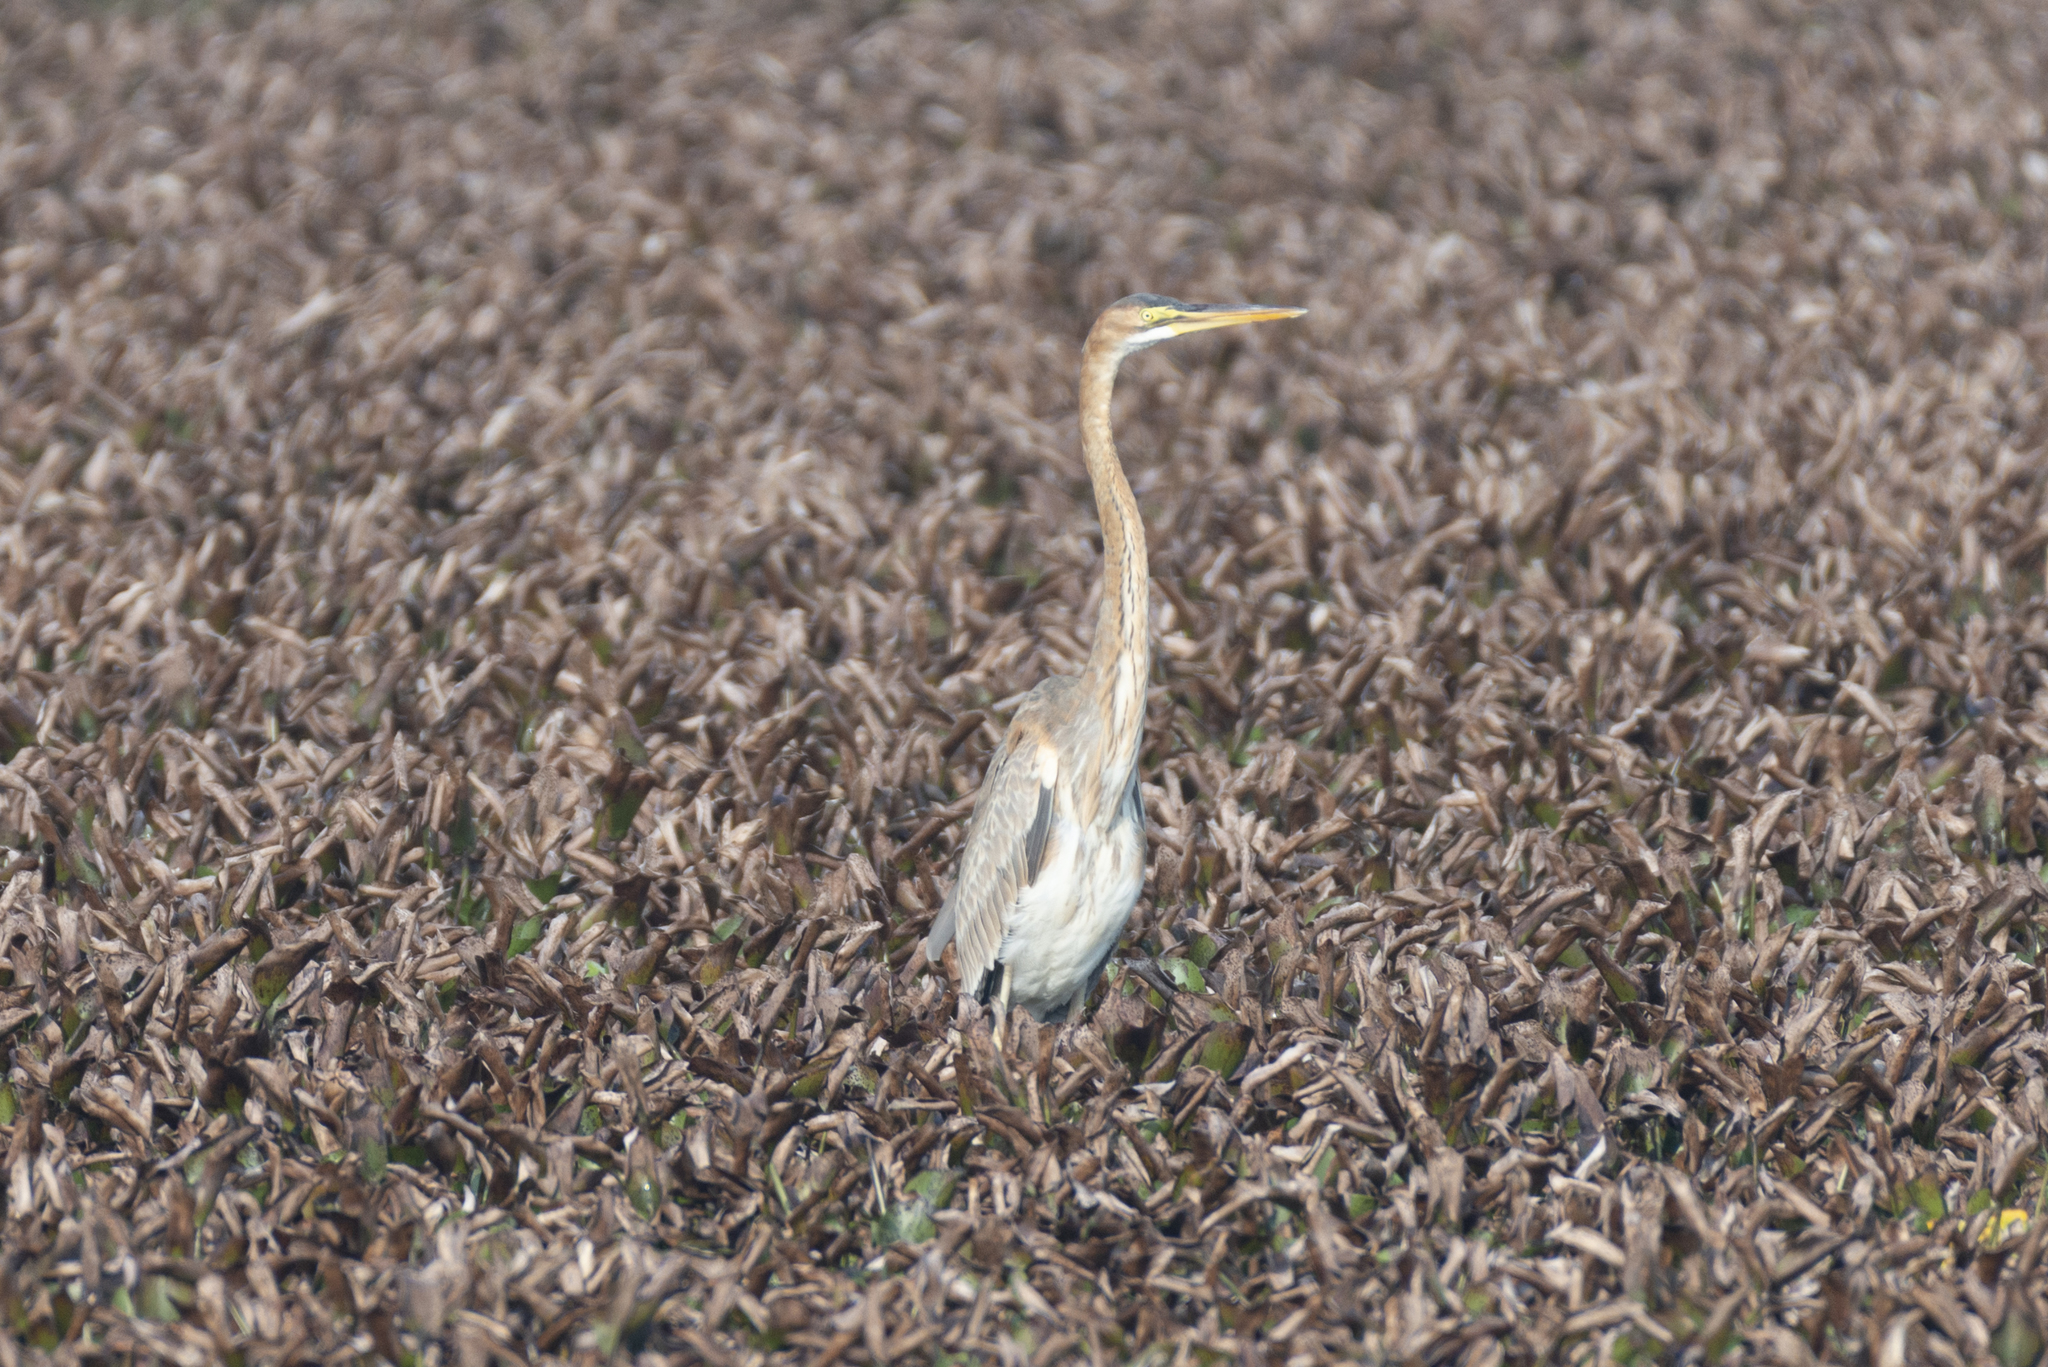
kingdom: Animalia
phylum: Chordata
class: Aves
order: Pelecaniformes
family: Ardeidae
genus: Ardea
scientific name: Ardea purpurea
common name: Purple heron
